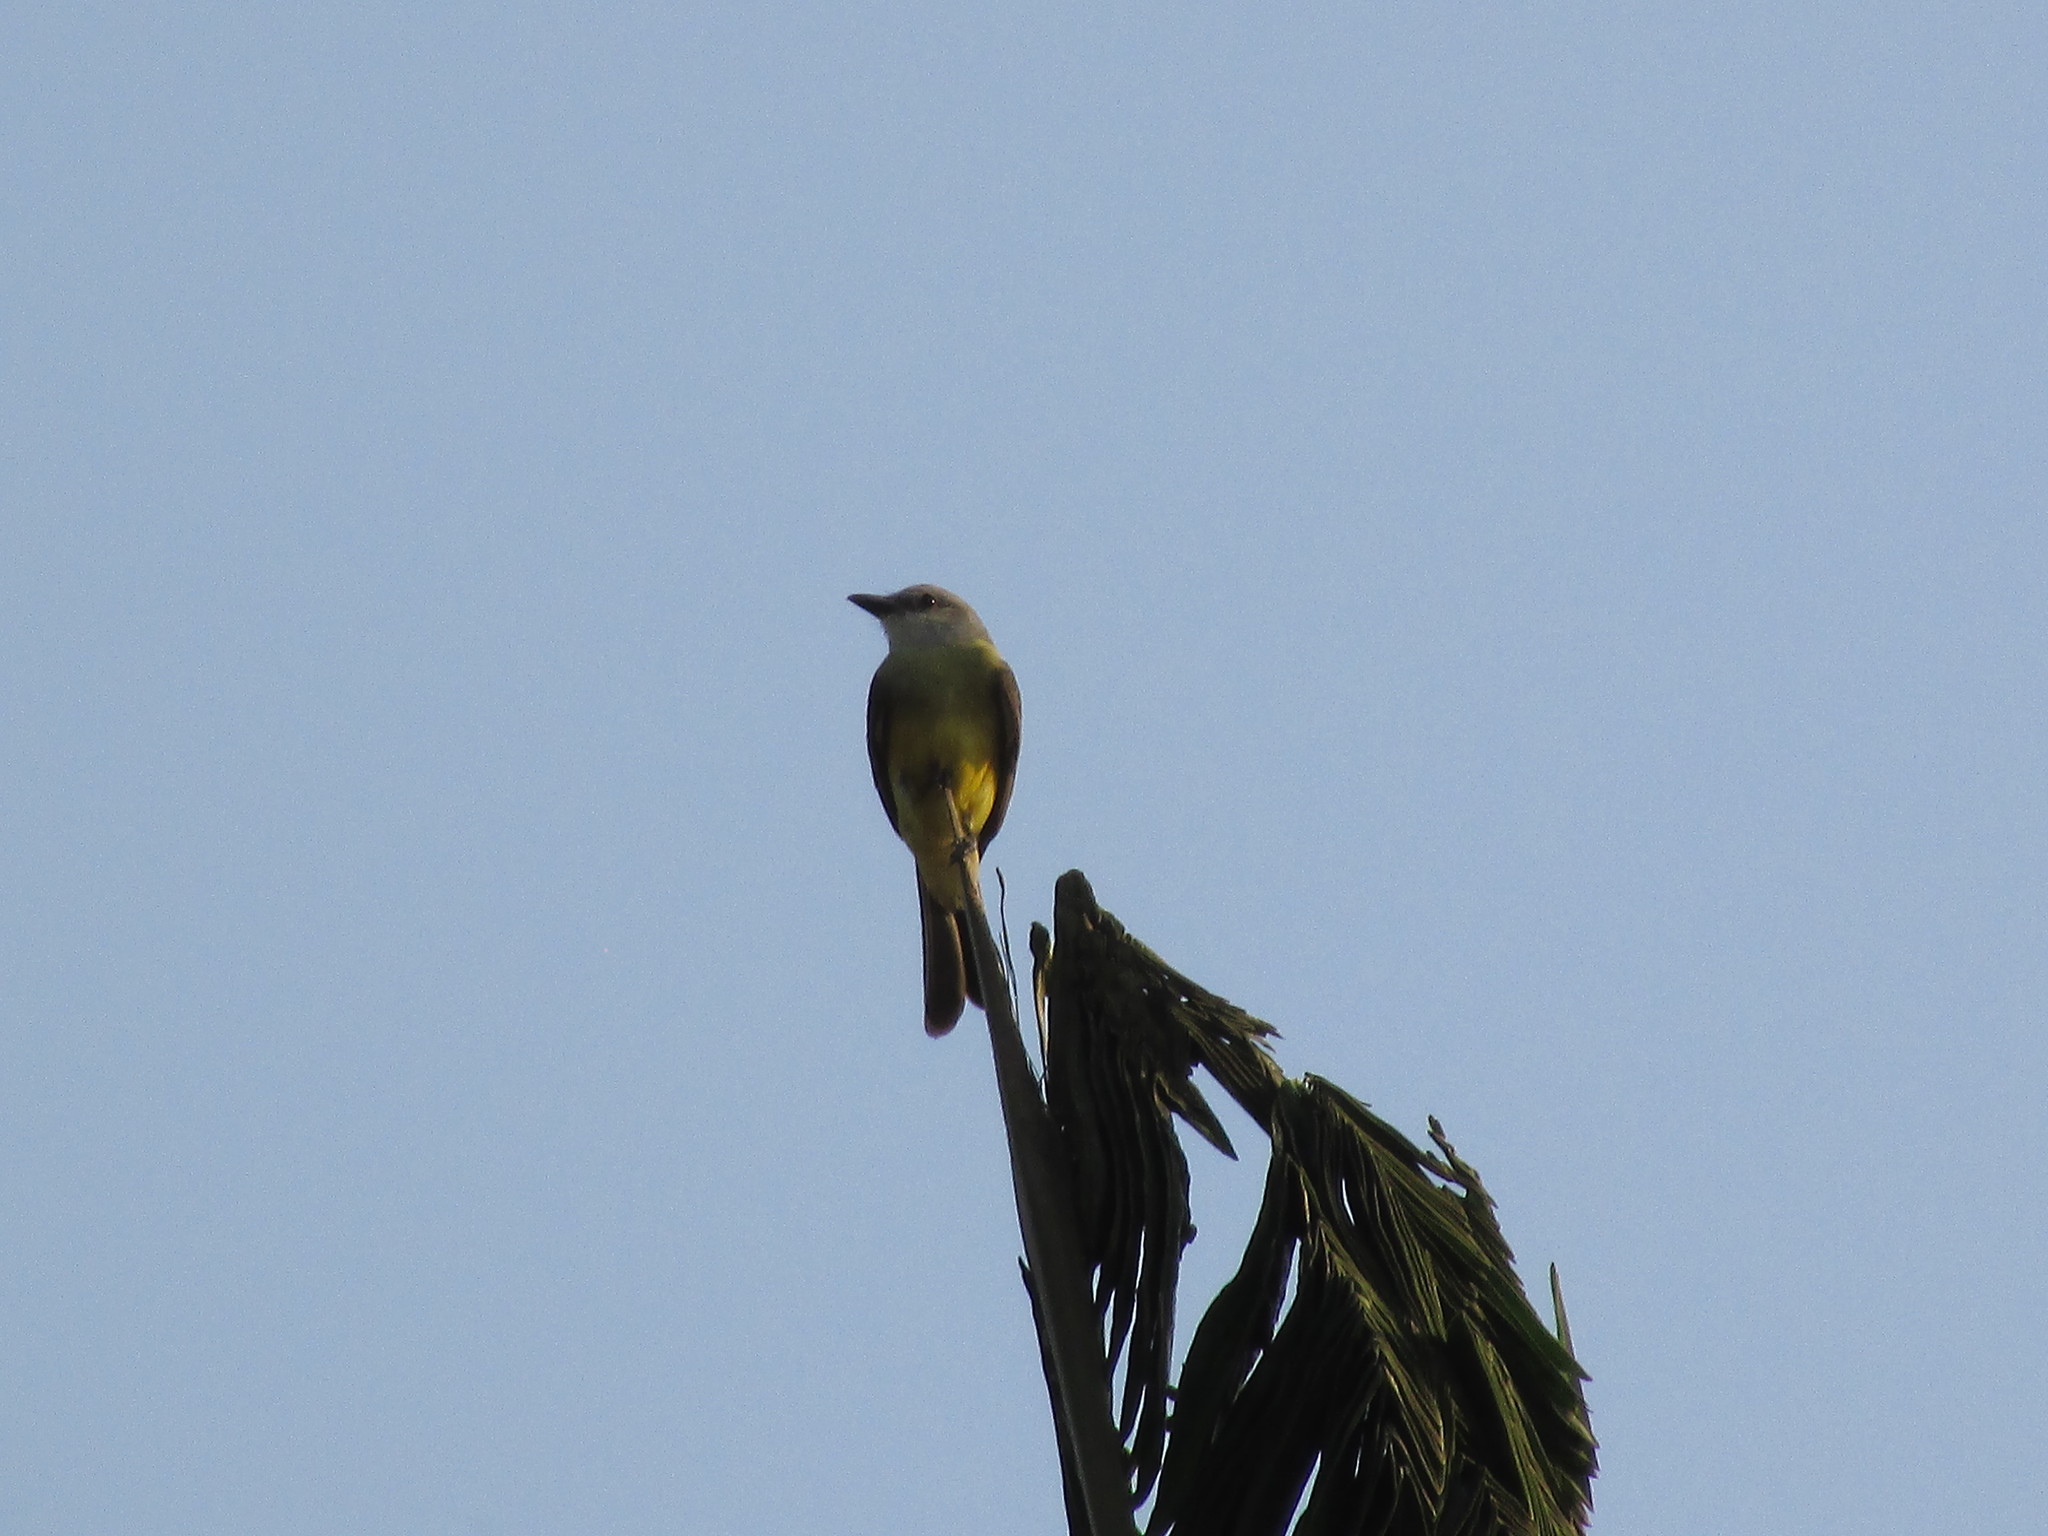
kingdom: Animalia
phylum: Chordata
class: Aves
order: Passeriformes
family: Tyrannidae
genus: Tyrannus
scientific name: Tyrannus melancholicus
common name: Tropical kingbird
